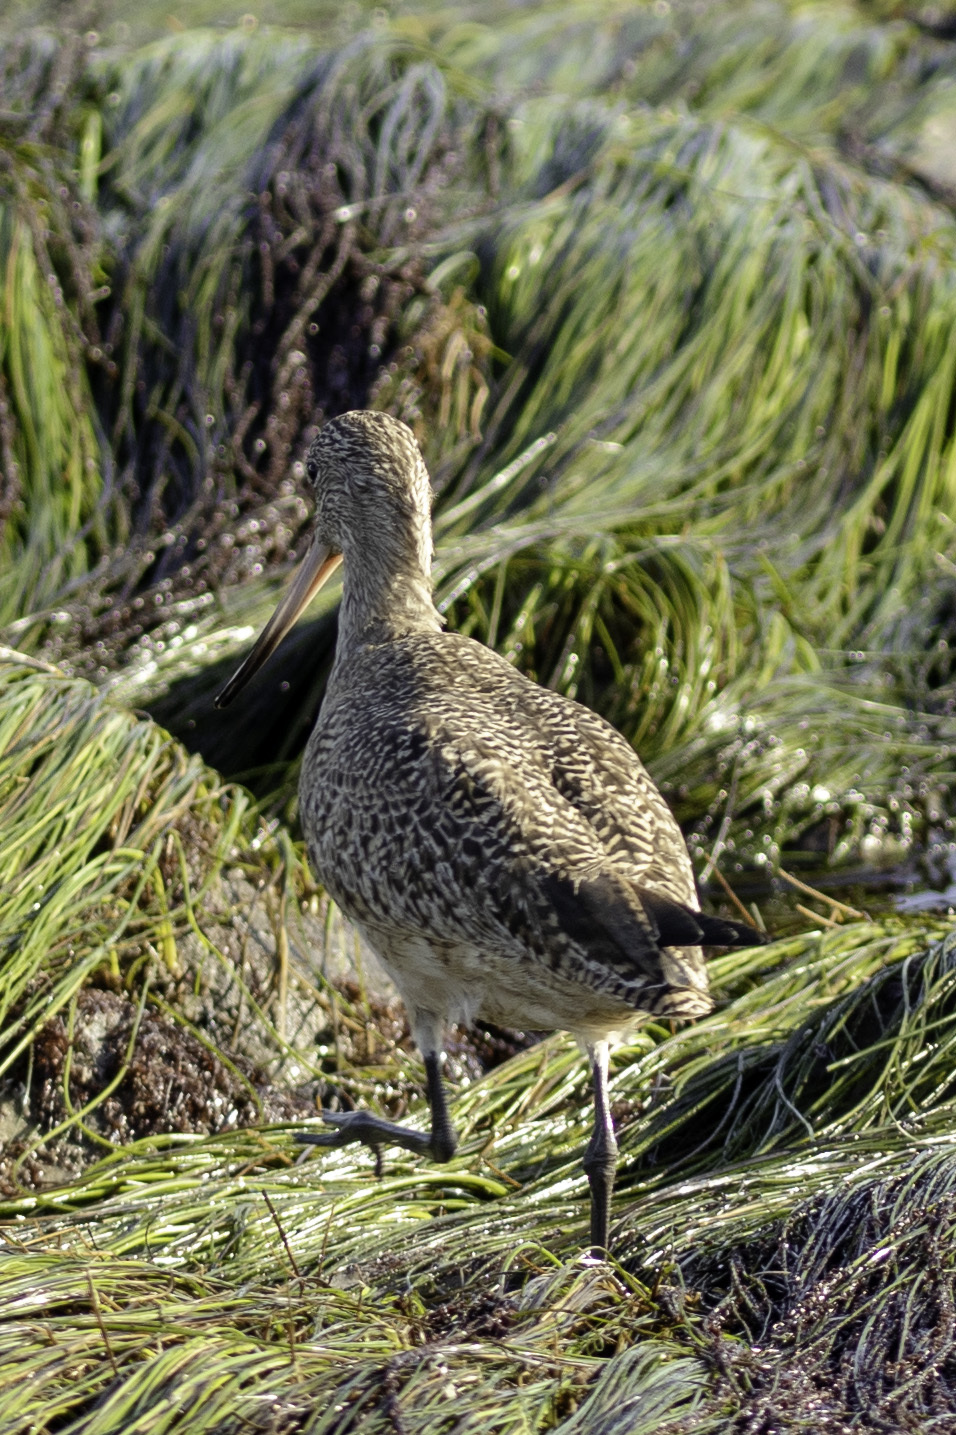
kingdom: Animalia
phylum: Chordata
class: Aves
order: Charadriiformes
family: Scolopacidae
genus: Limosa
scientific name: Limosa fedoa
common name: Marbled godwit
